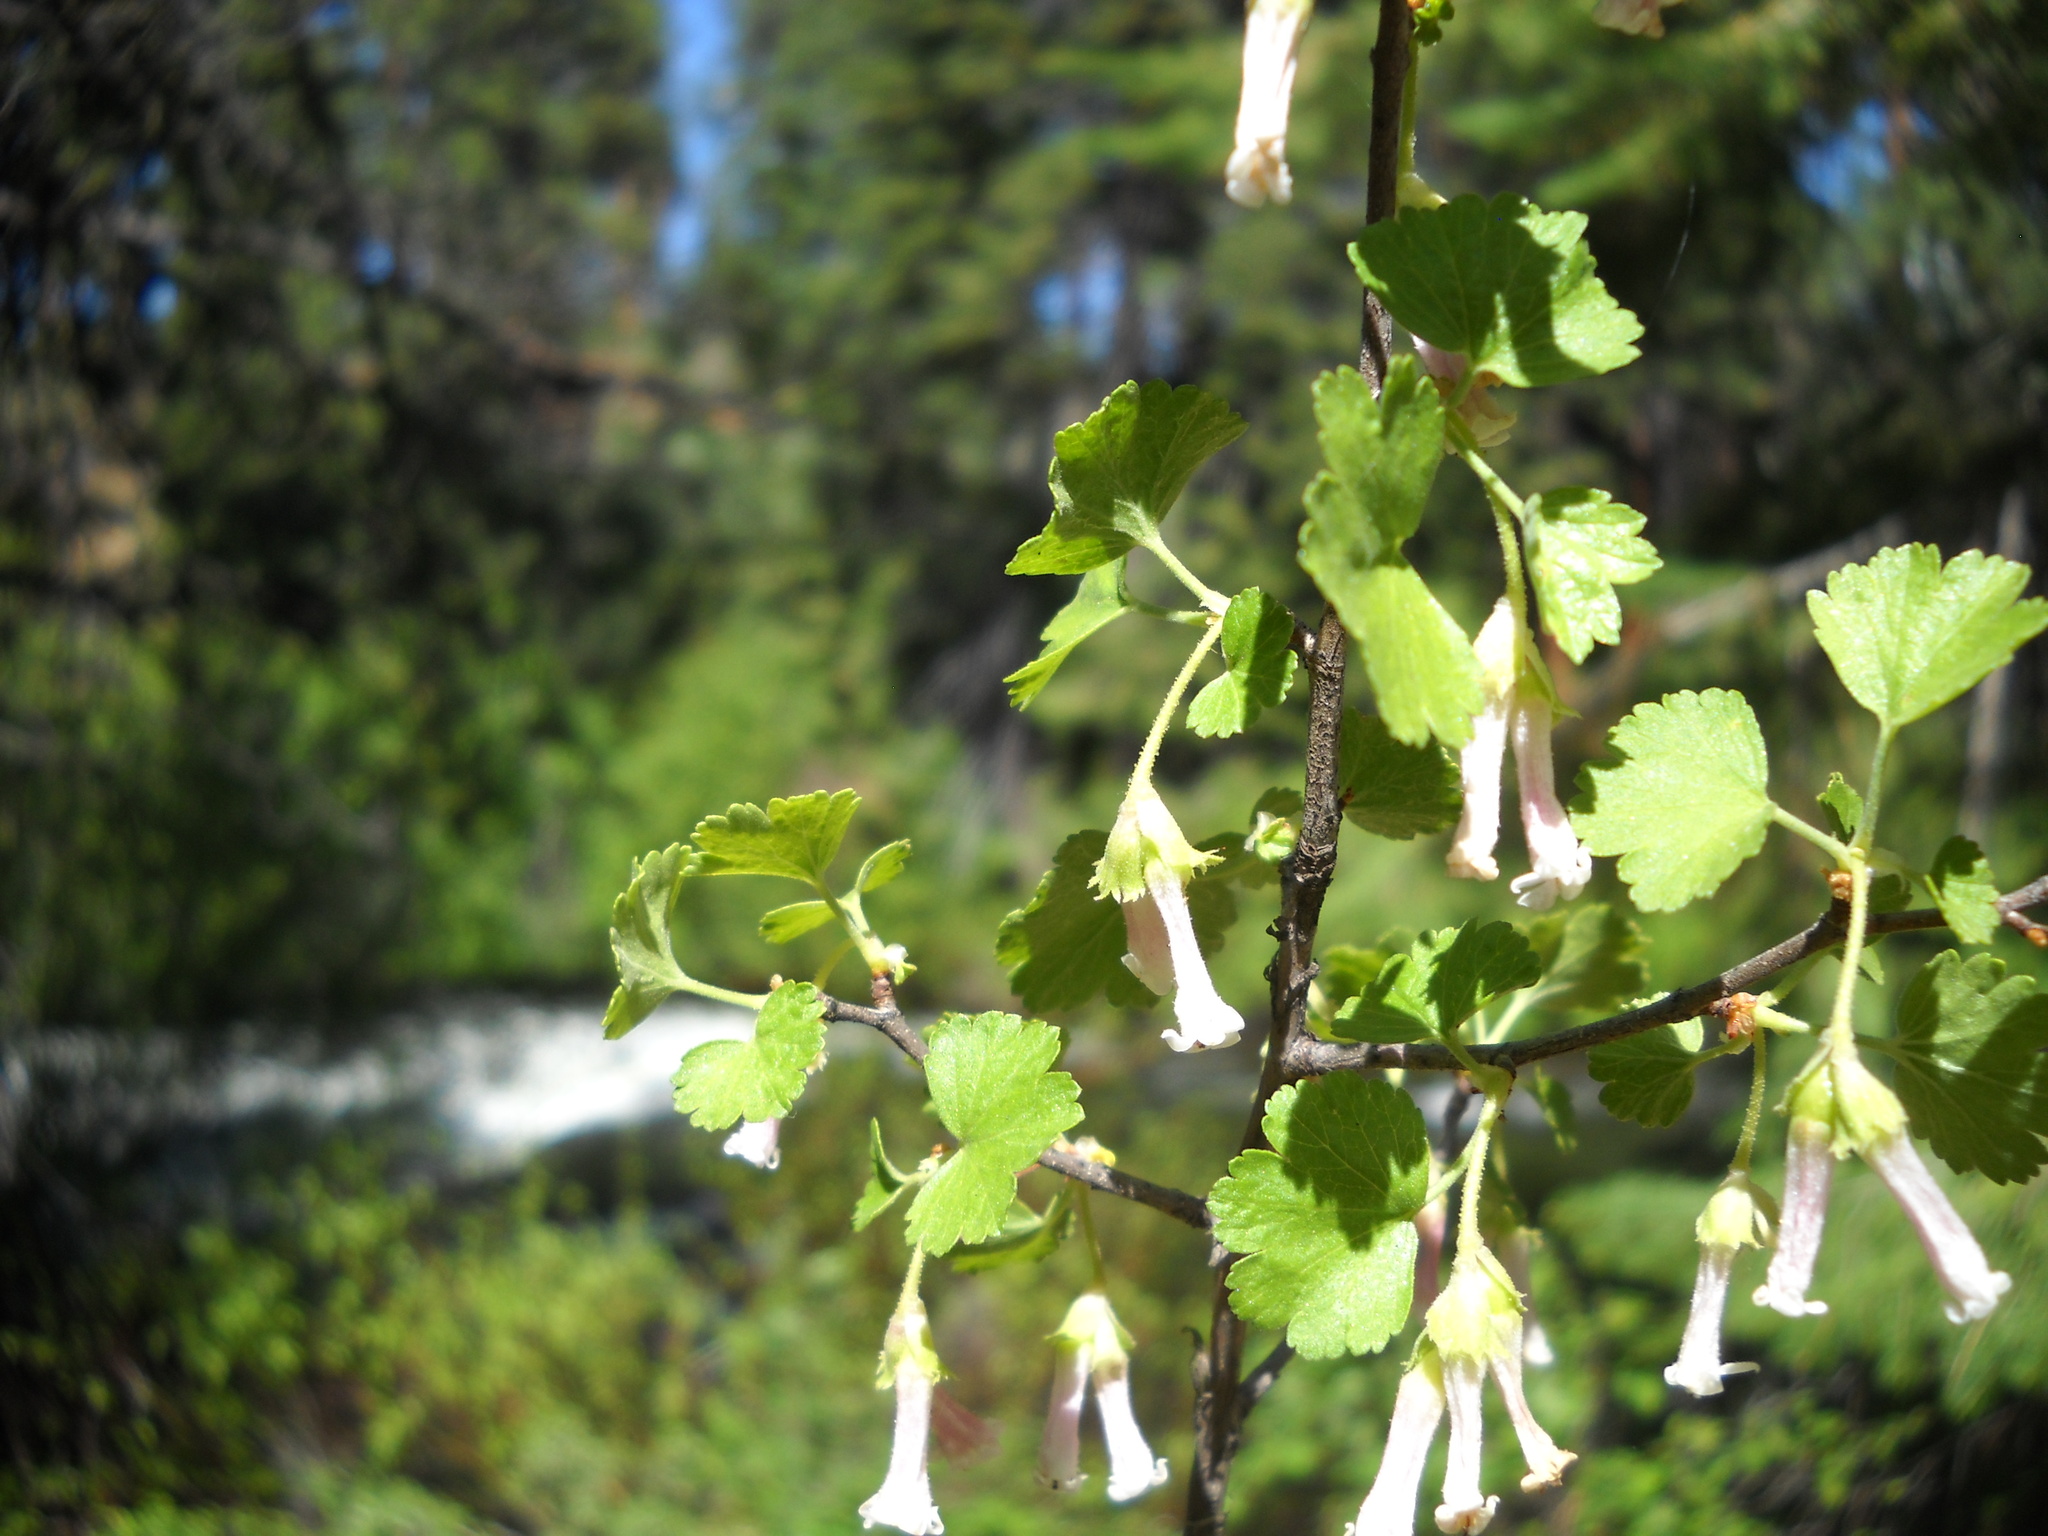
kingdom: Plantae
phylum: Tracheophyta
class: Magnoliopsida
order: Saxifragales
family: Grossulariaceae
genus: Ribes
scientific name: Ribes cereum
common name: Wax currant
